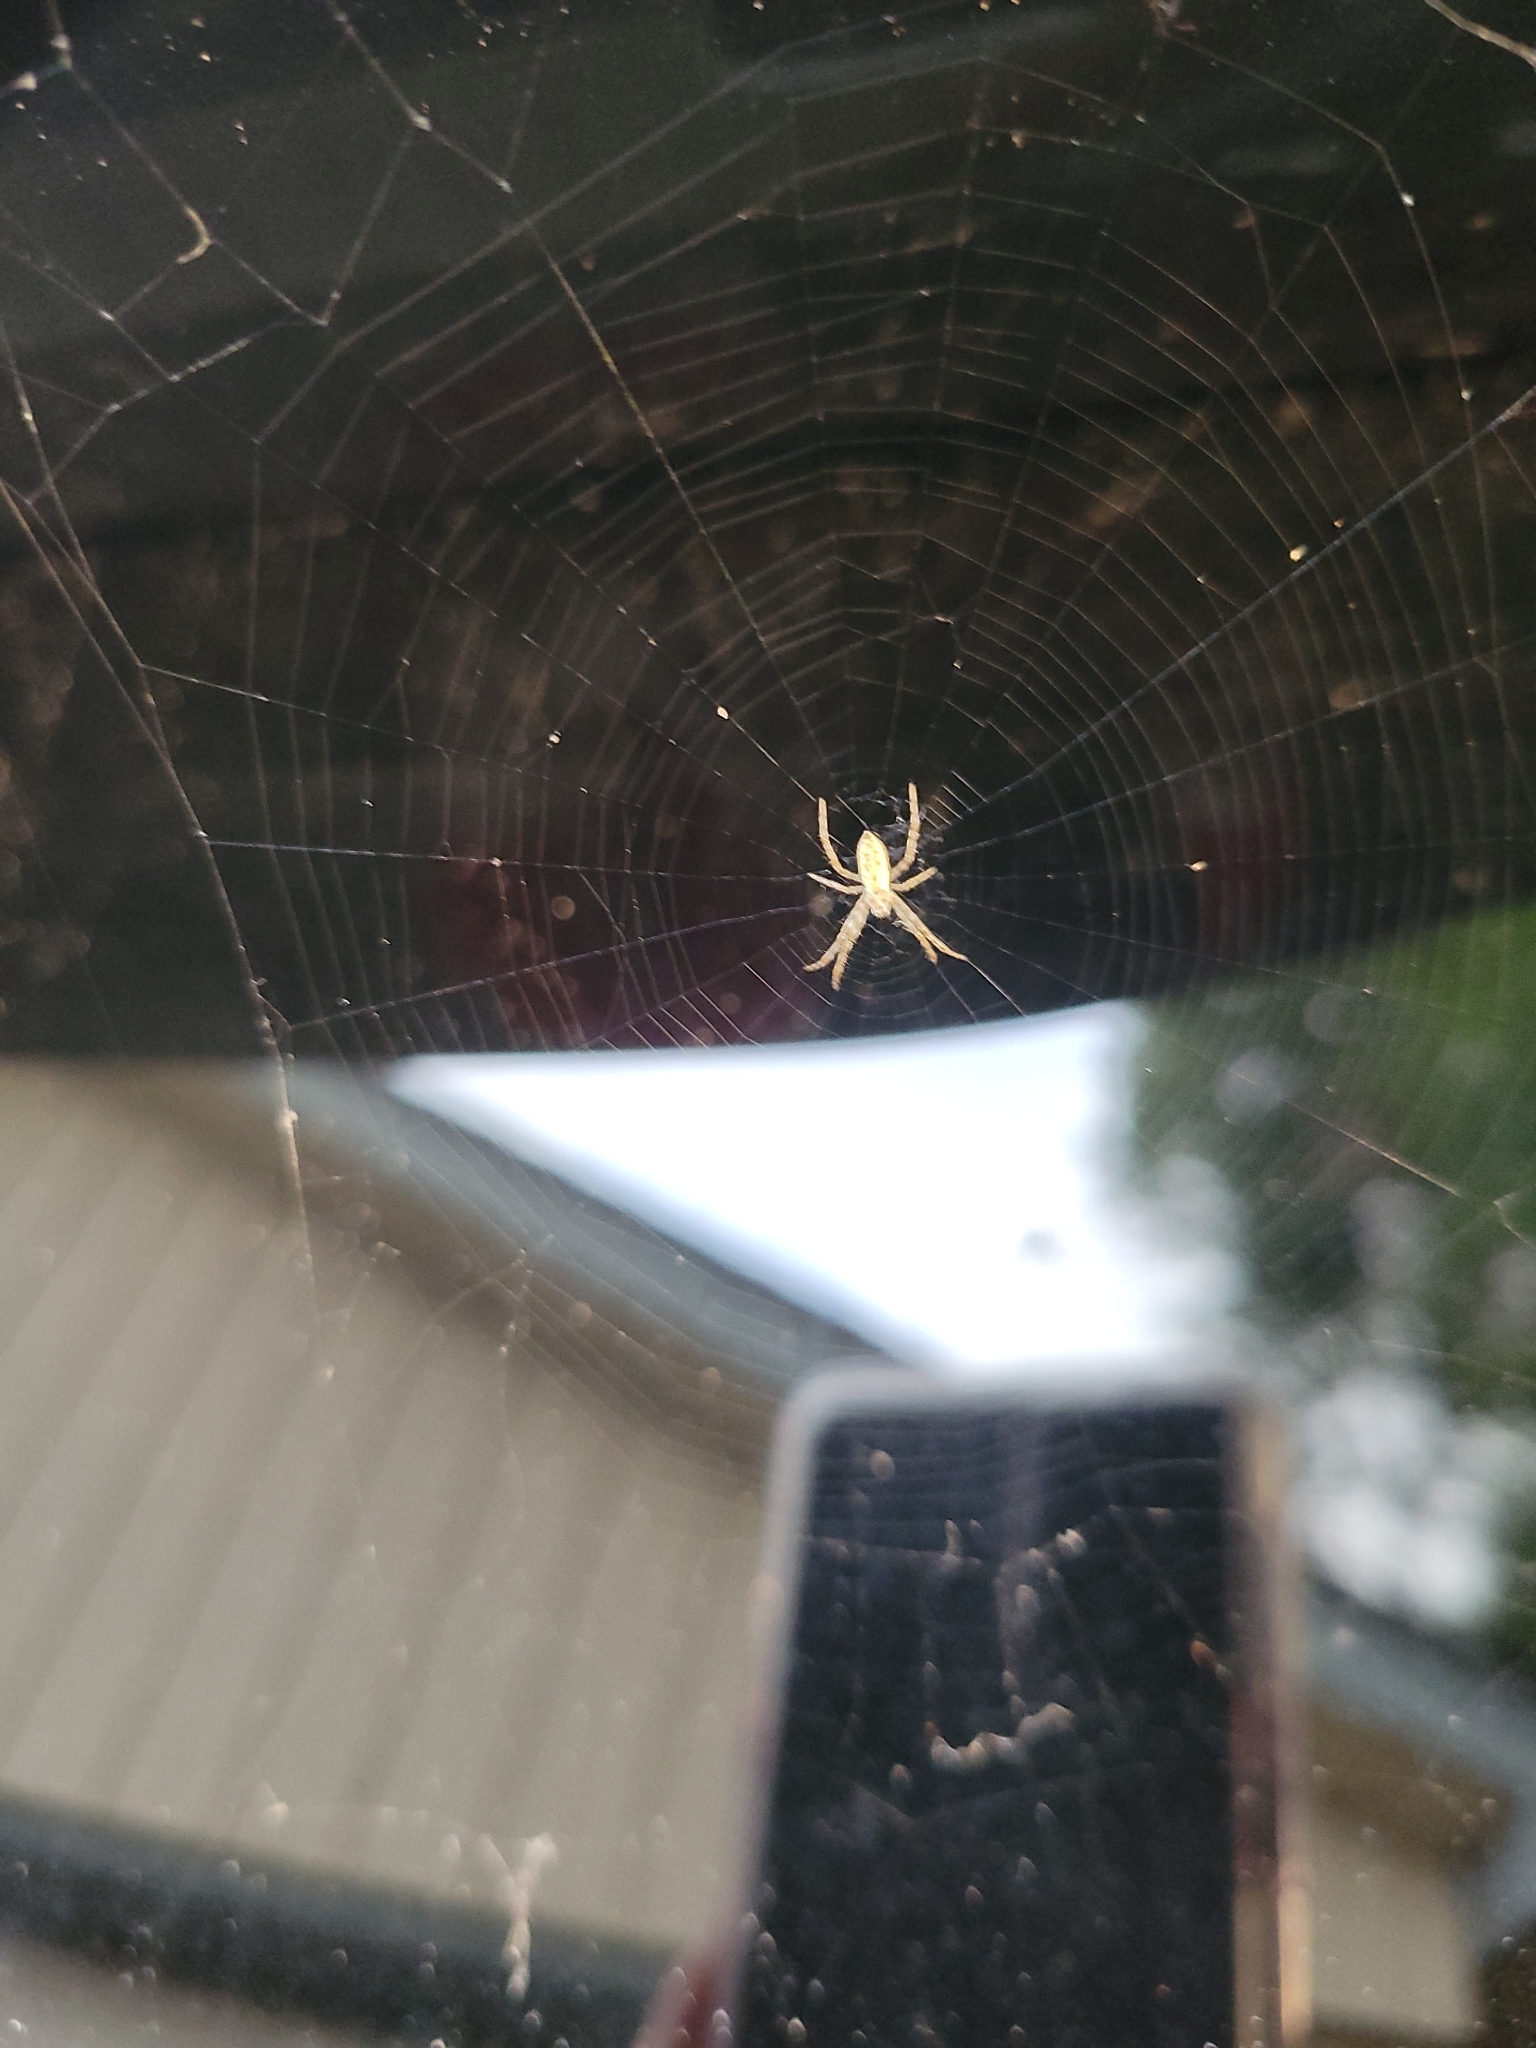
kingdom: Animalia
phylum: Arthropoda
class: Arachnida
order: Araneae
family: Araneidae
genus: Argiope
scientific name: Argiope aurantia
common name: Orb weavers
